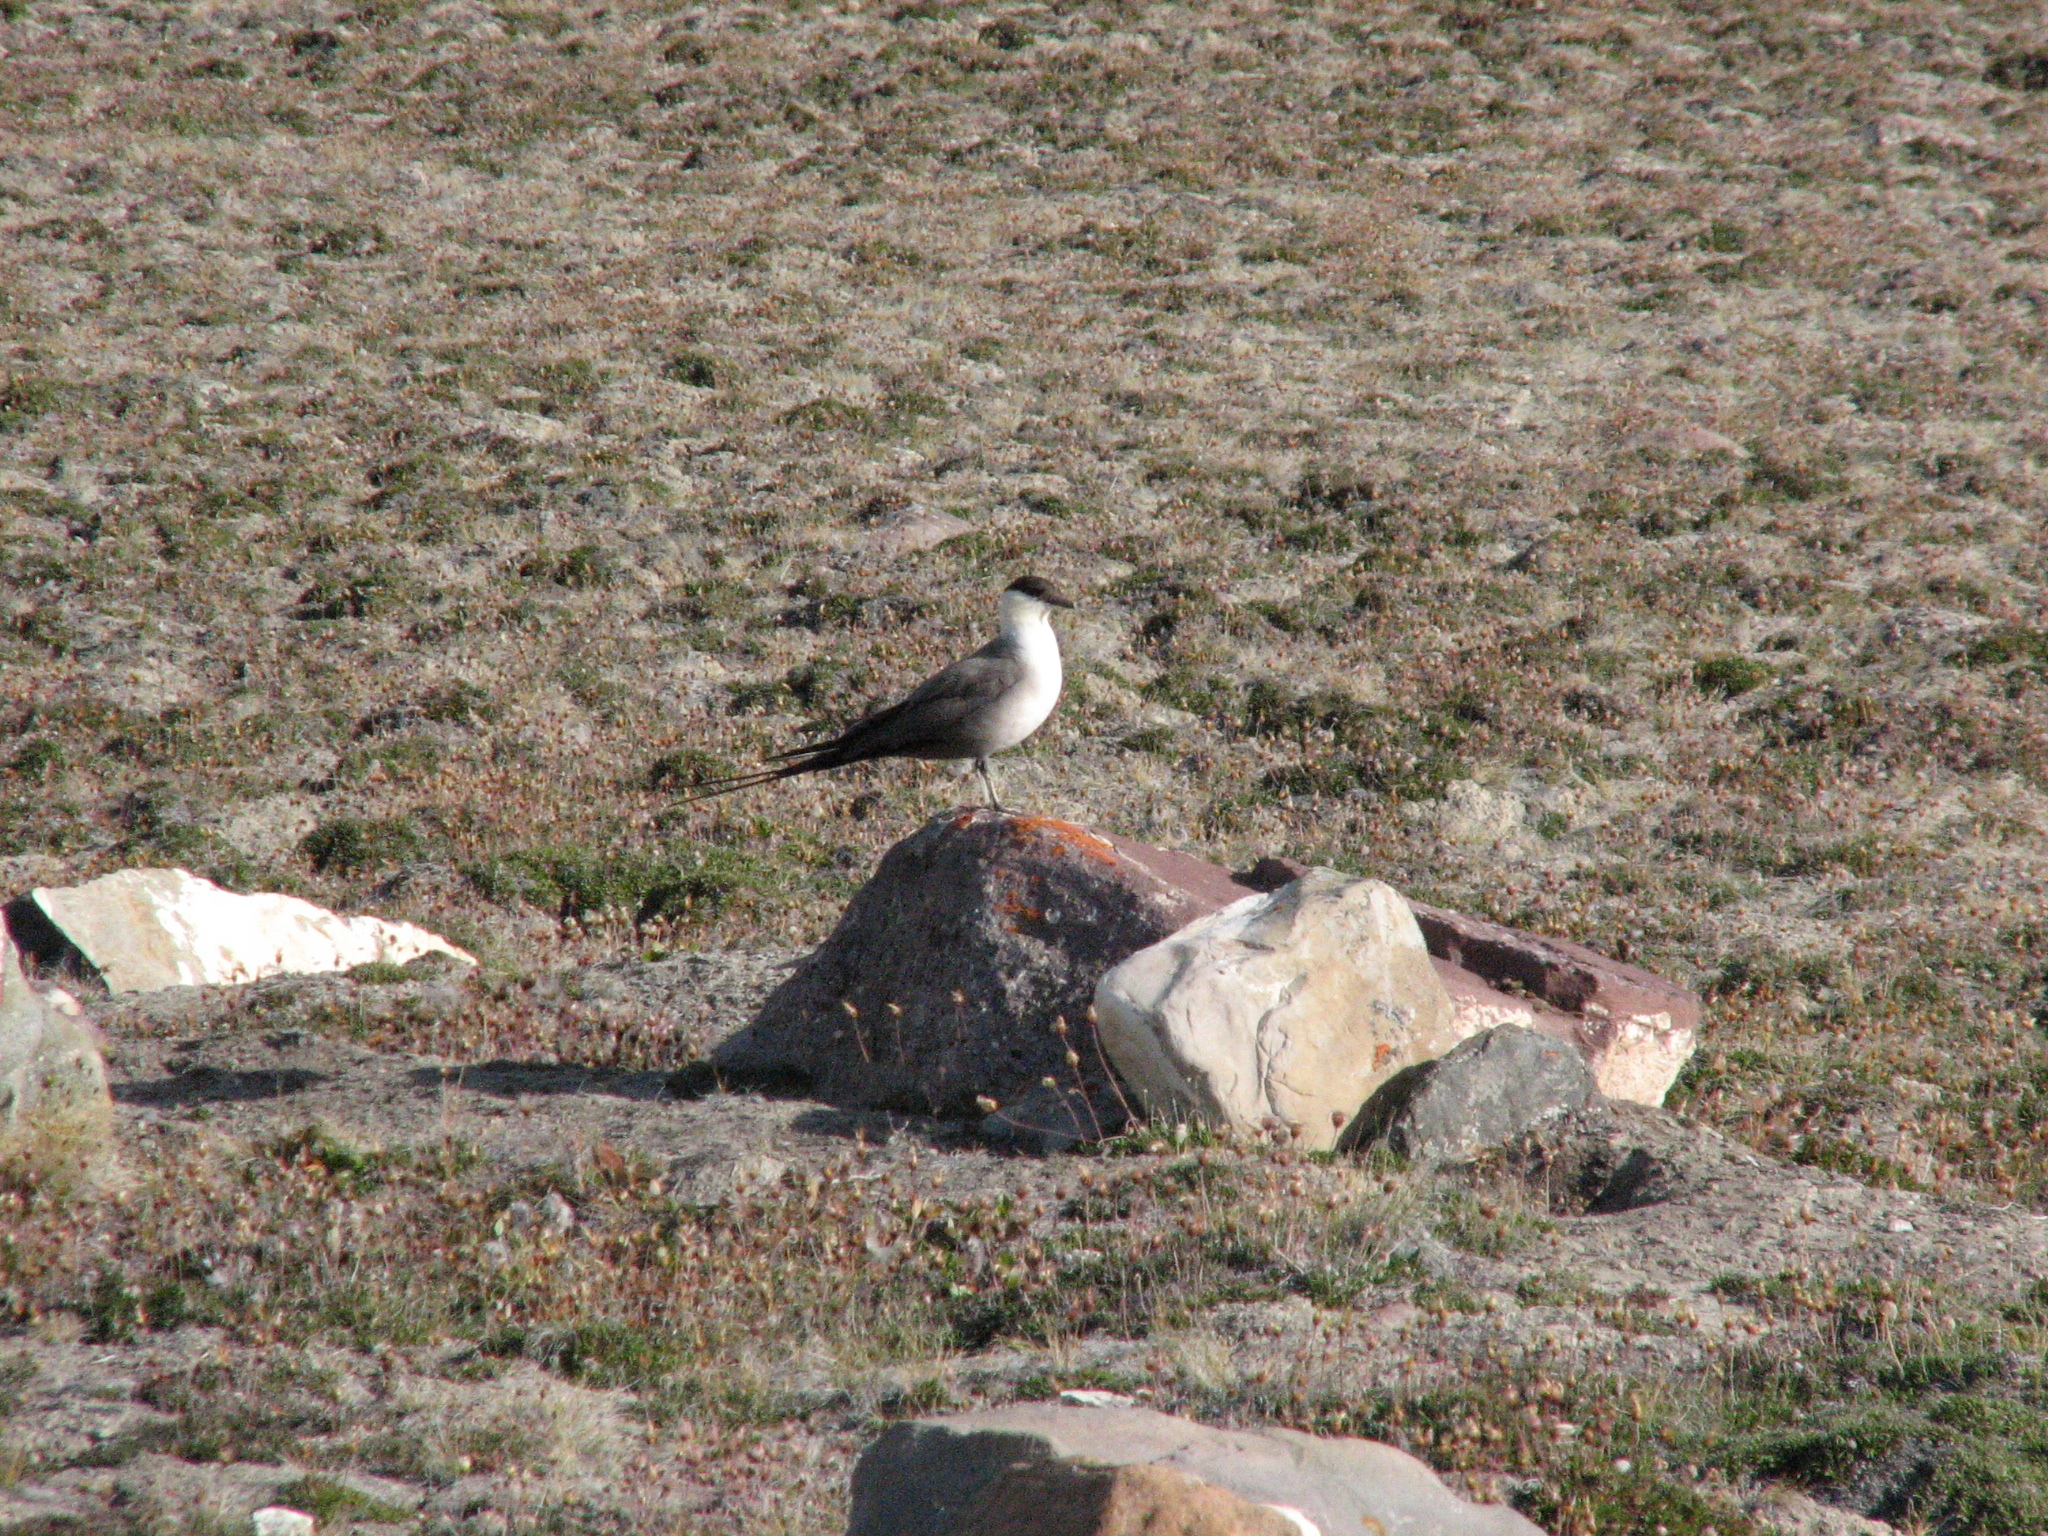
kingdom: Animalia
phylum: Chordata
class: Aves
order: Charadriiformes
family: Stercorariidae
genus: Stercorarius
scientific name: Stercorarius longicaudus
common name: Long-tailed jaeger
